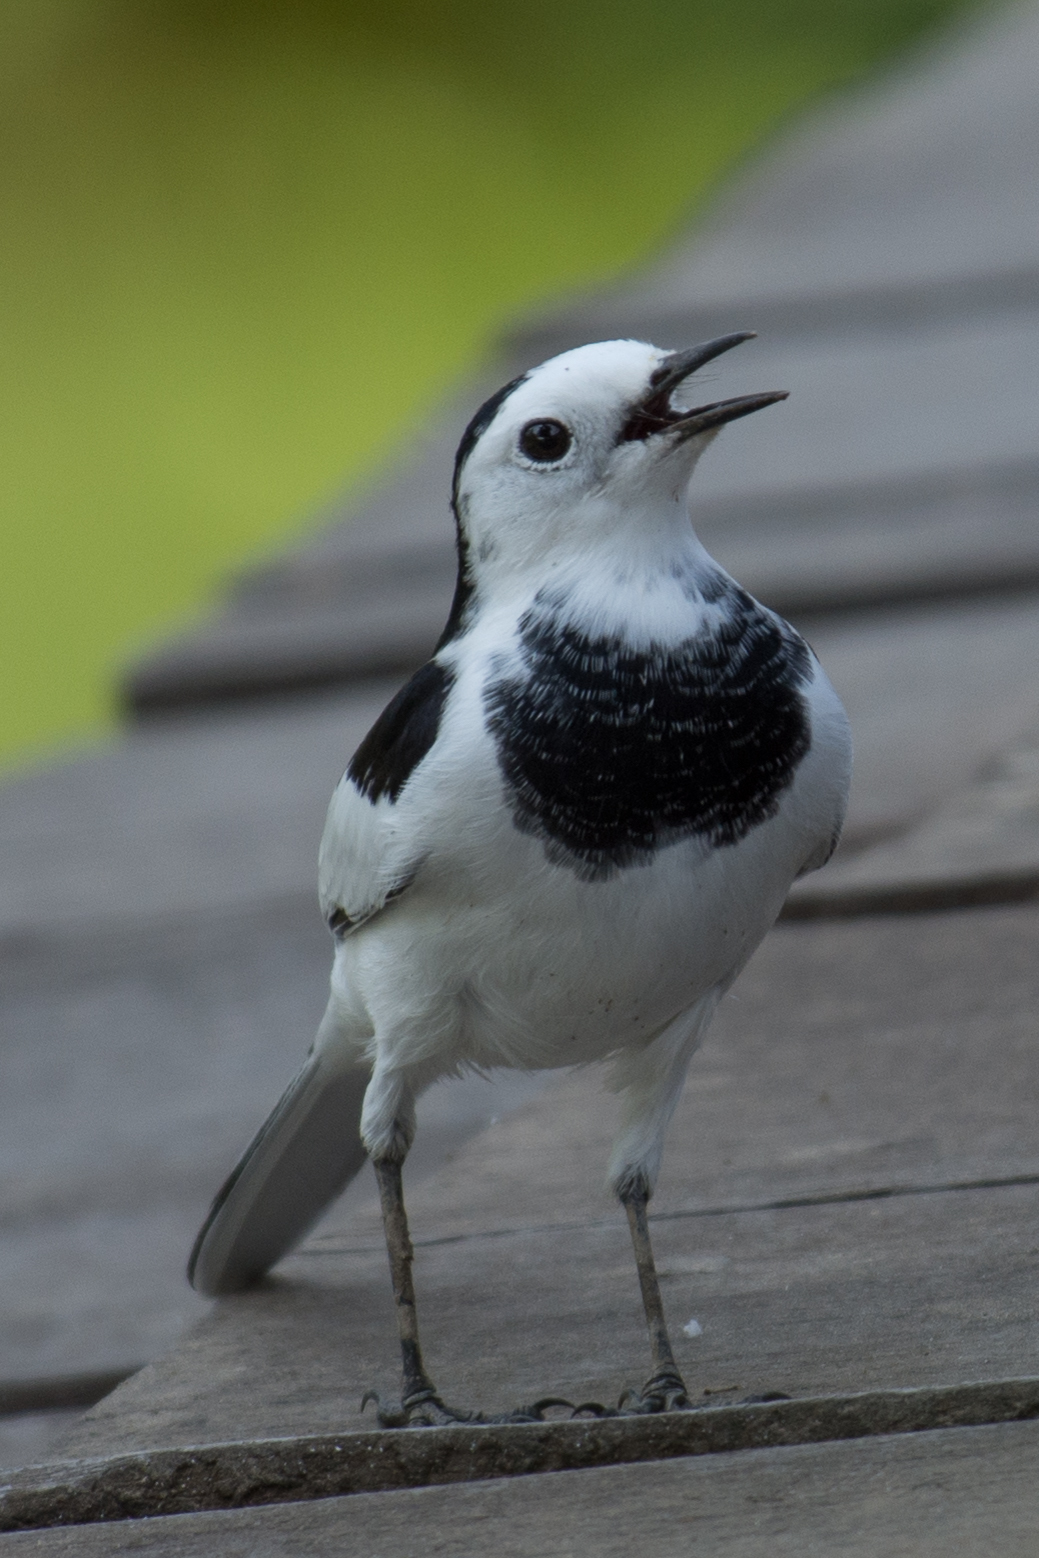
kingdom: Animalia
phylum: Chordata
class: Aves
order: Passeriformes
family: Motacillidae
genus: Motacilla
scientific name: Motacilla alba
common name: White wagtail
